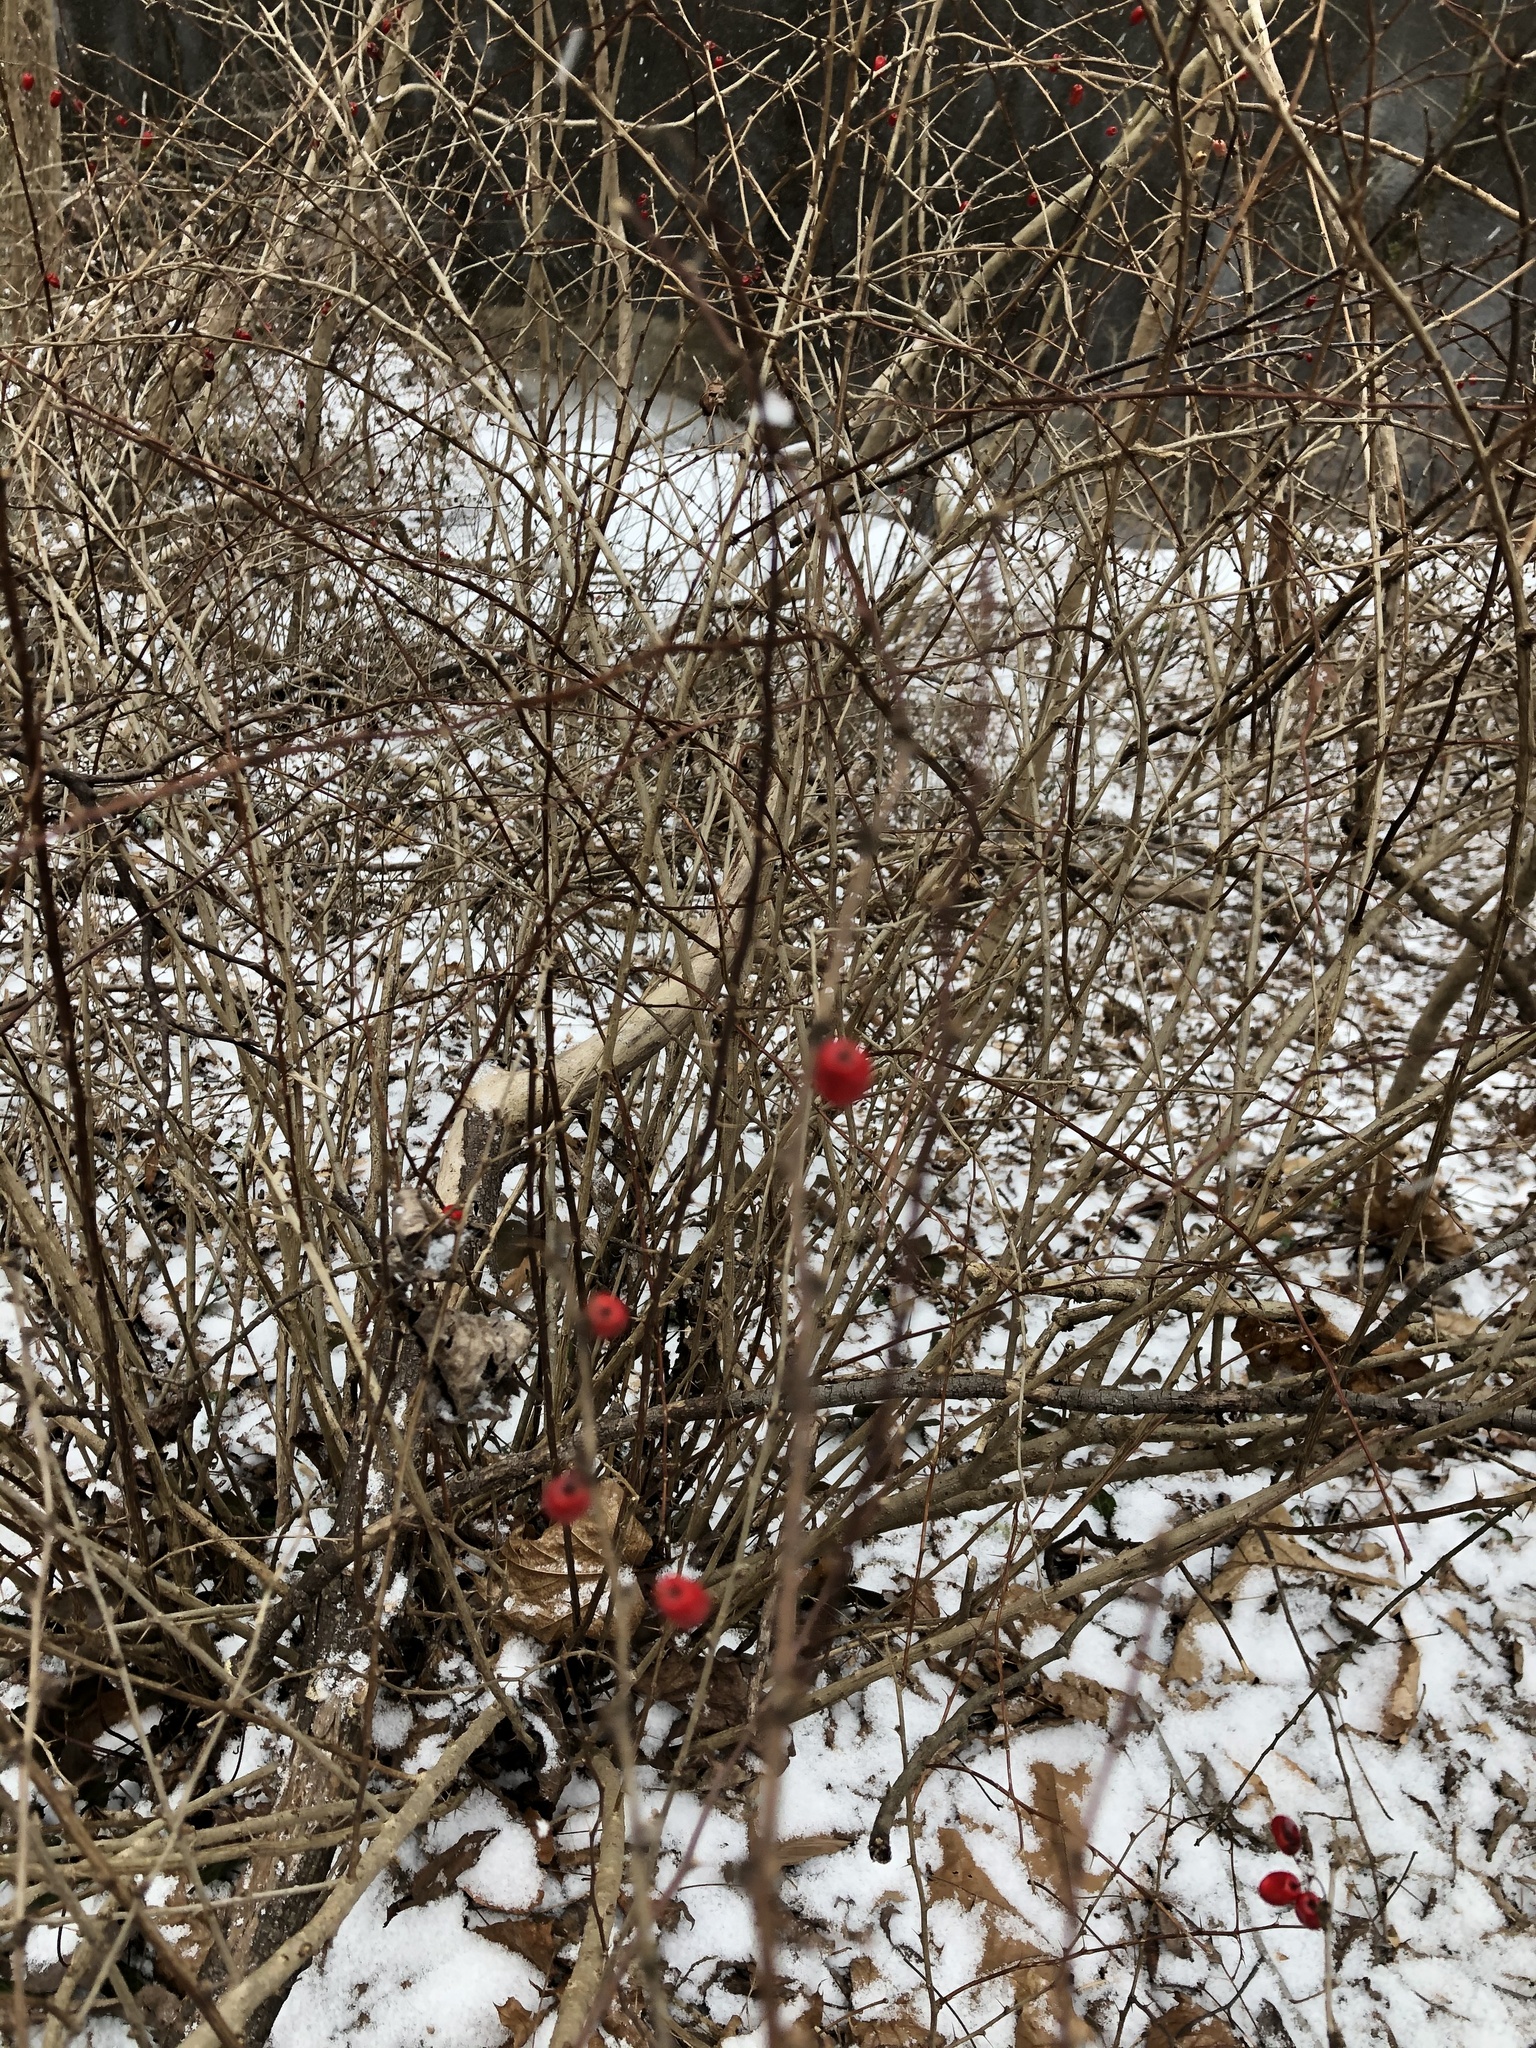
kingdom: Plantae
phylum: Tracheophyta
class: Magnoliopsida
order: Ranunculales
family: Berberidaceae
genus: Berberis
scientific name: Berberis thunbergii
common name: Japanese barberry
